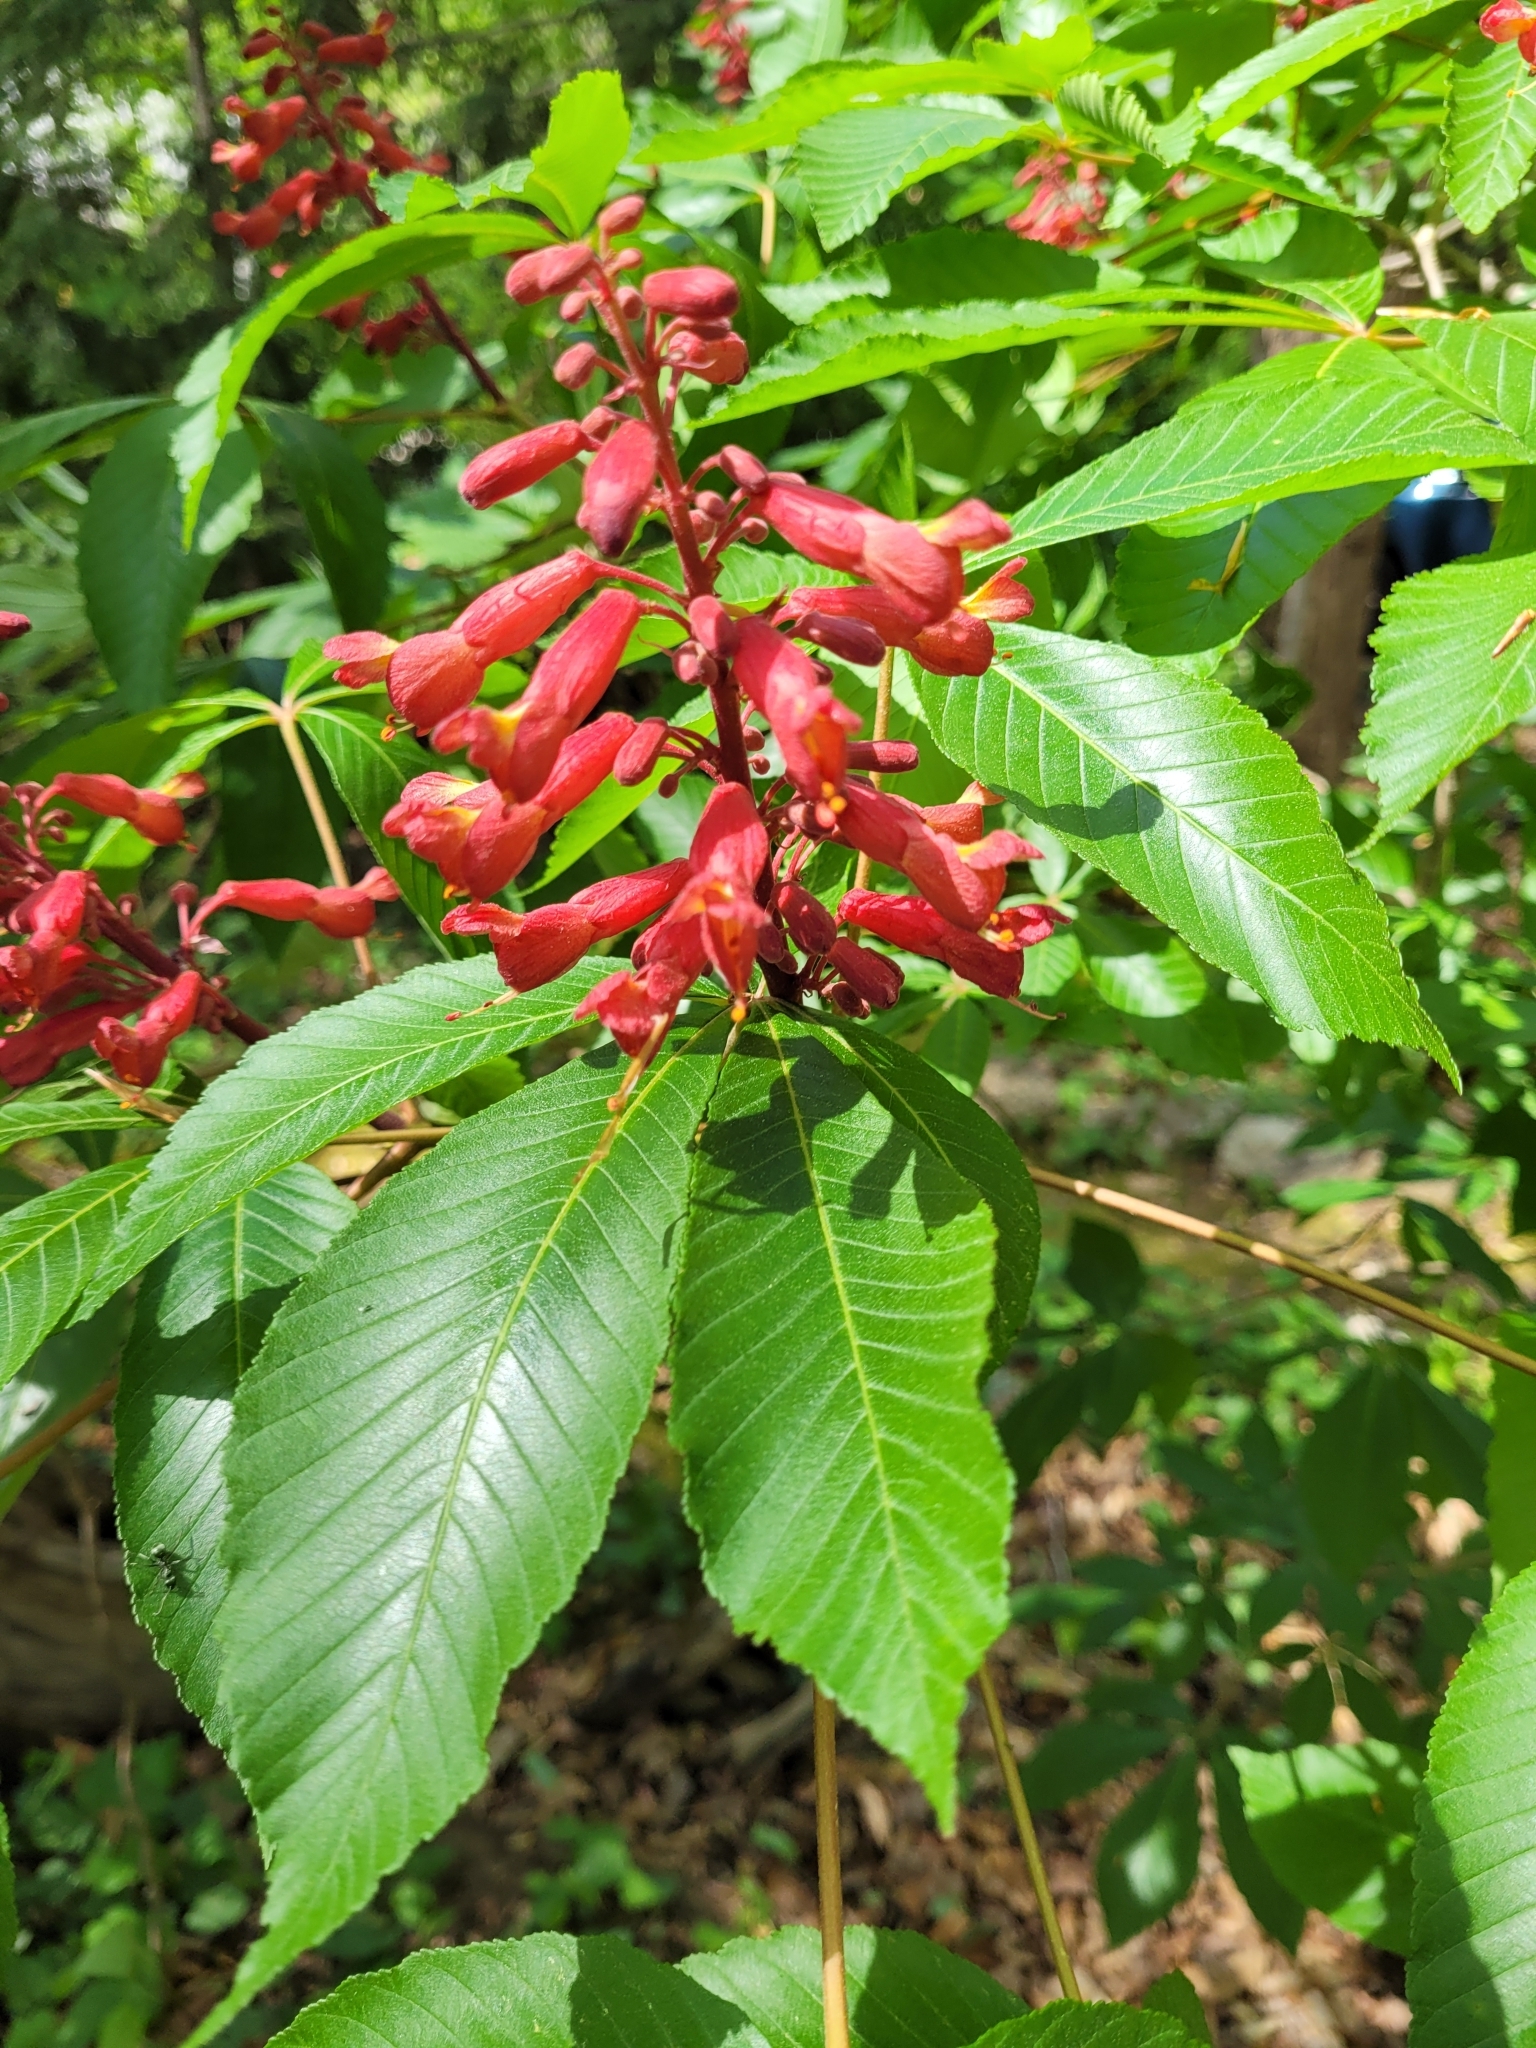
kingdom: Plantae
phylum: Tracheophyta
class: Magnoliopsida
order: Sapindales
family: Sapindaceae
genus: Aesculus
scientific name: Aesculus pavia
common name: Red buckeye
